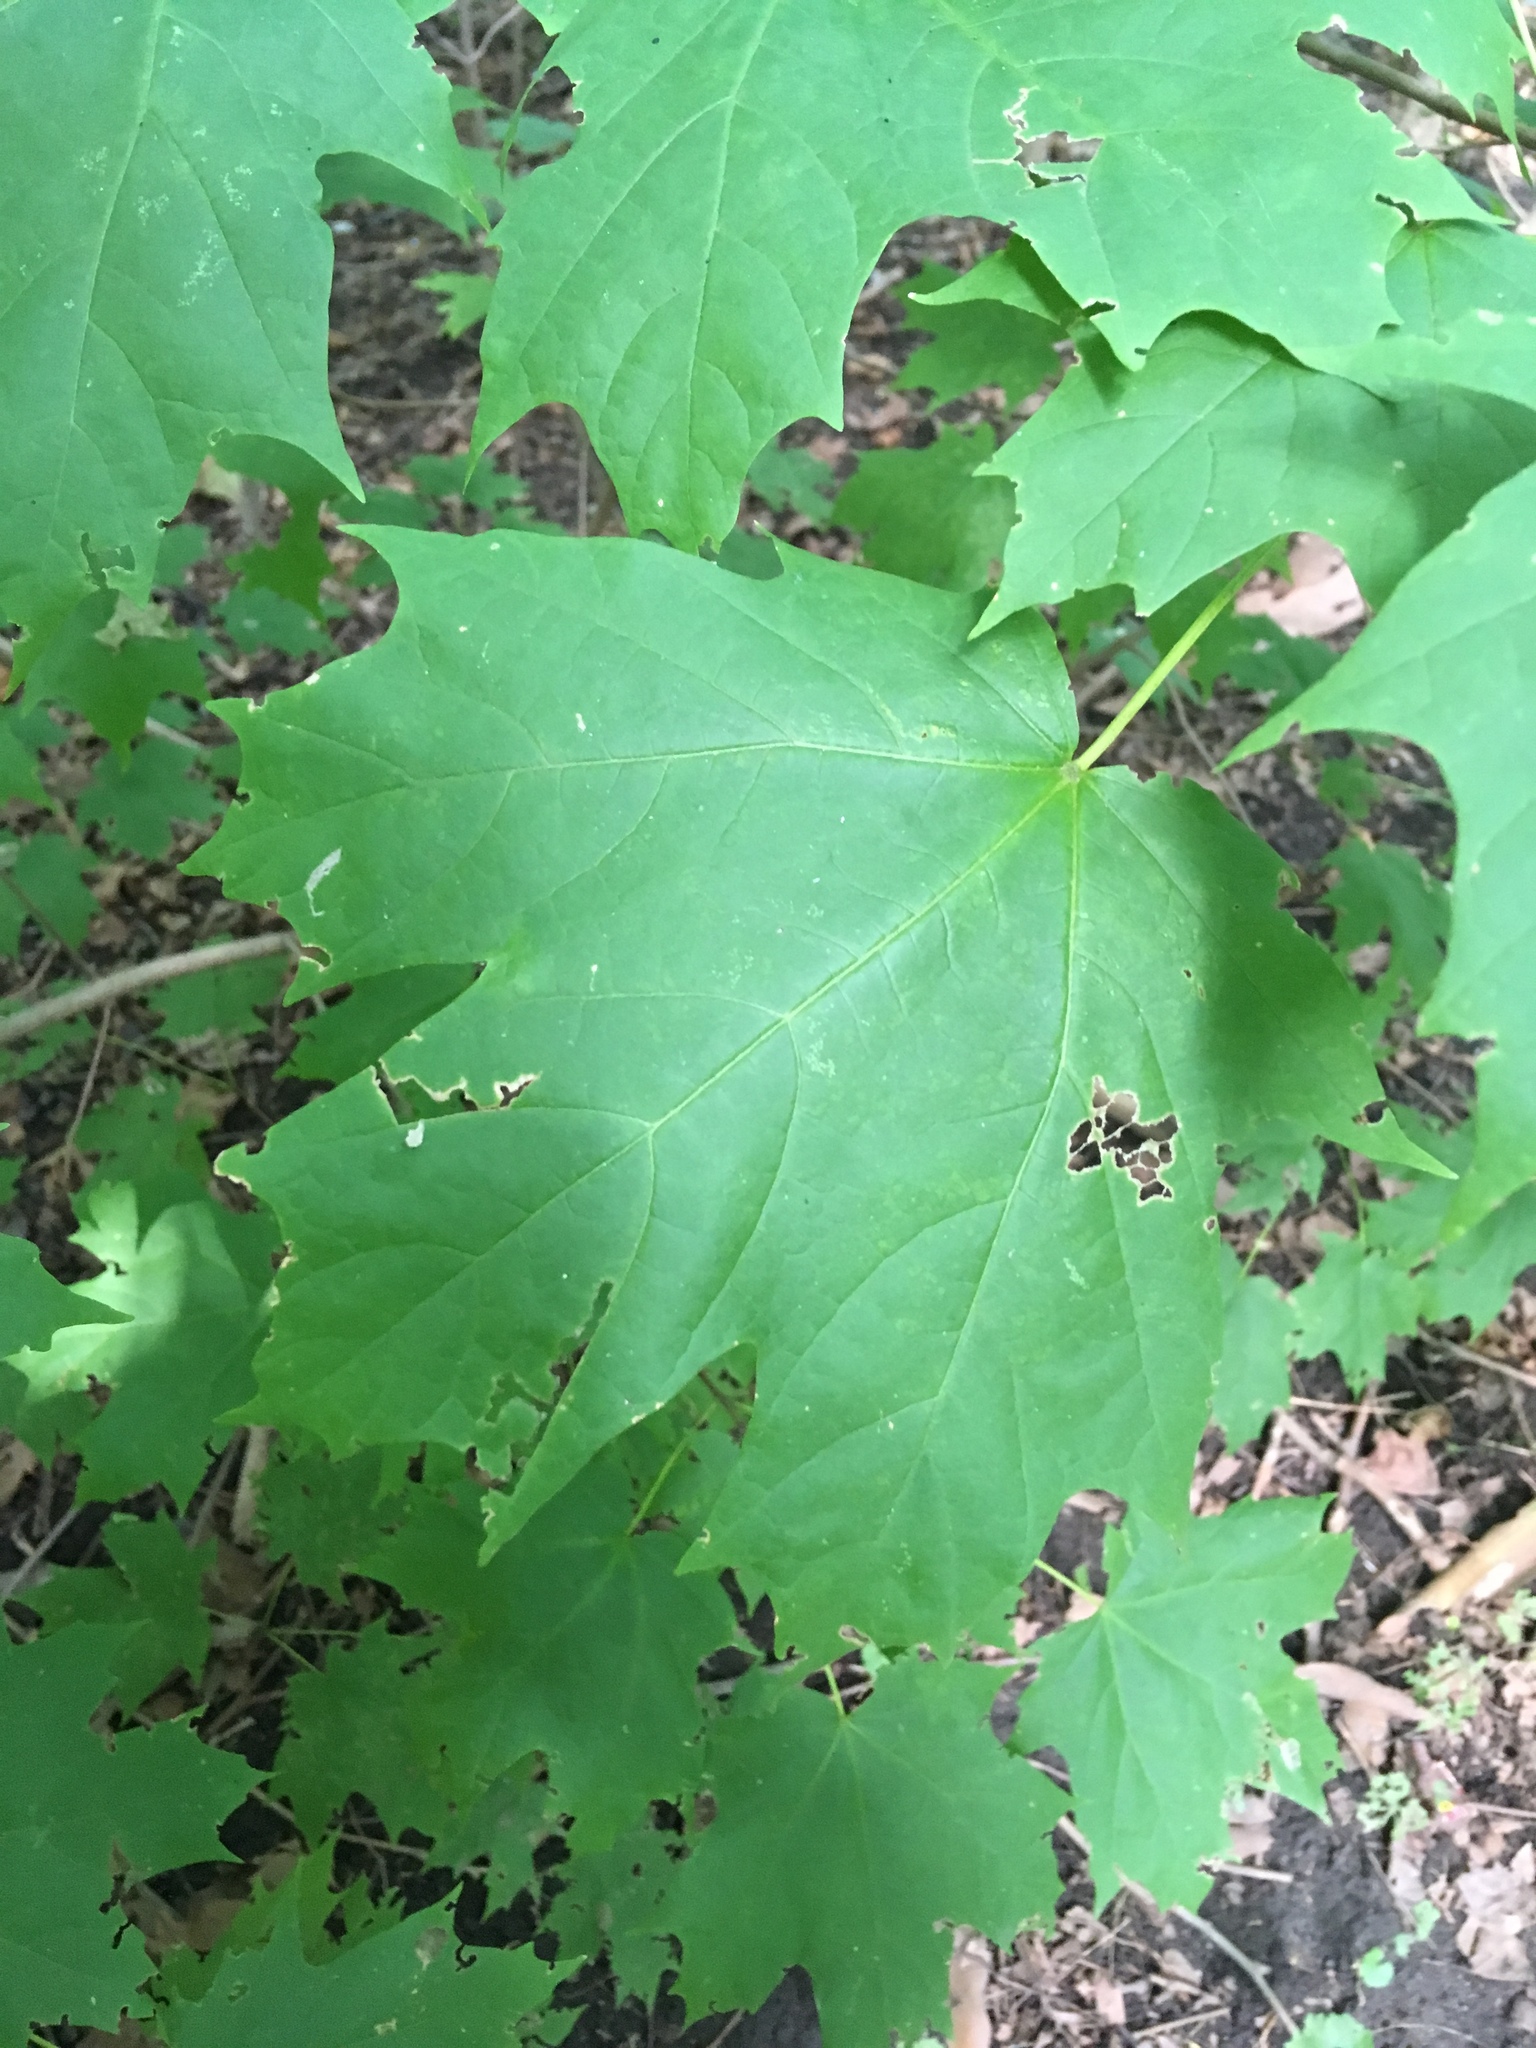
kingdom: Plantae
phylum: Tracheophyta
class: Magnoliopsida
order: Sapindales
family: Sapindaceae
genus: Acer
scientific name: Acer saccharum
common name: Sugar maple
